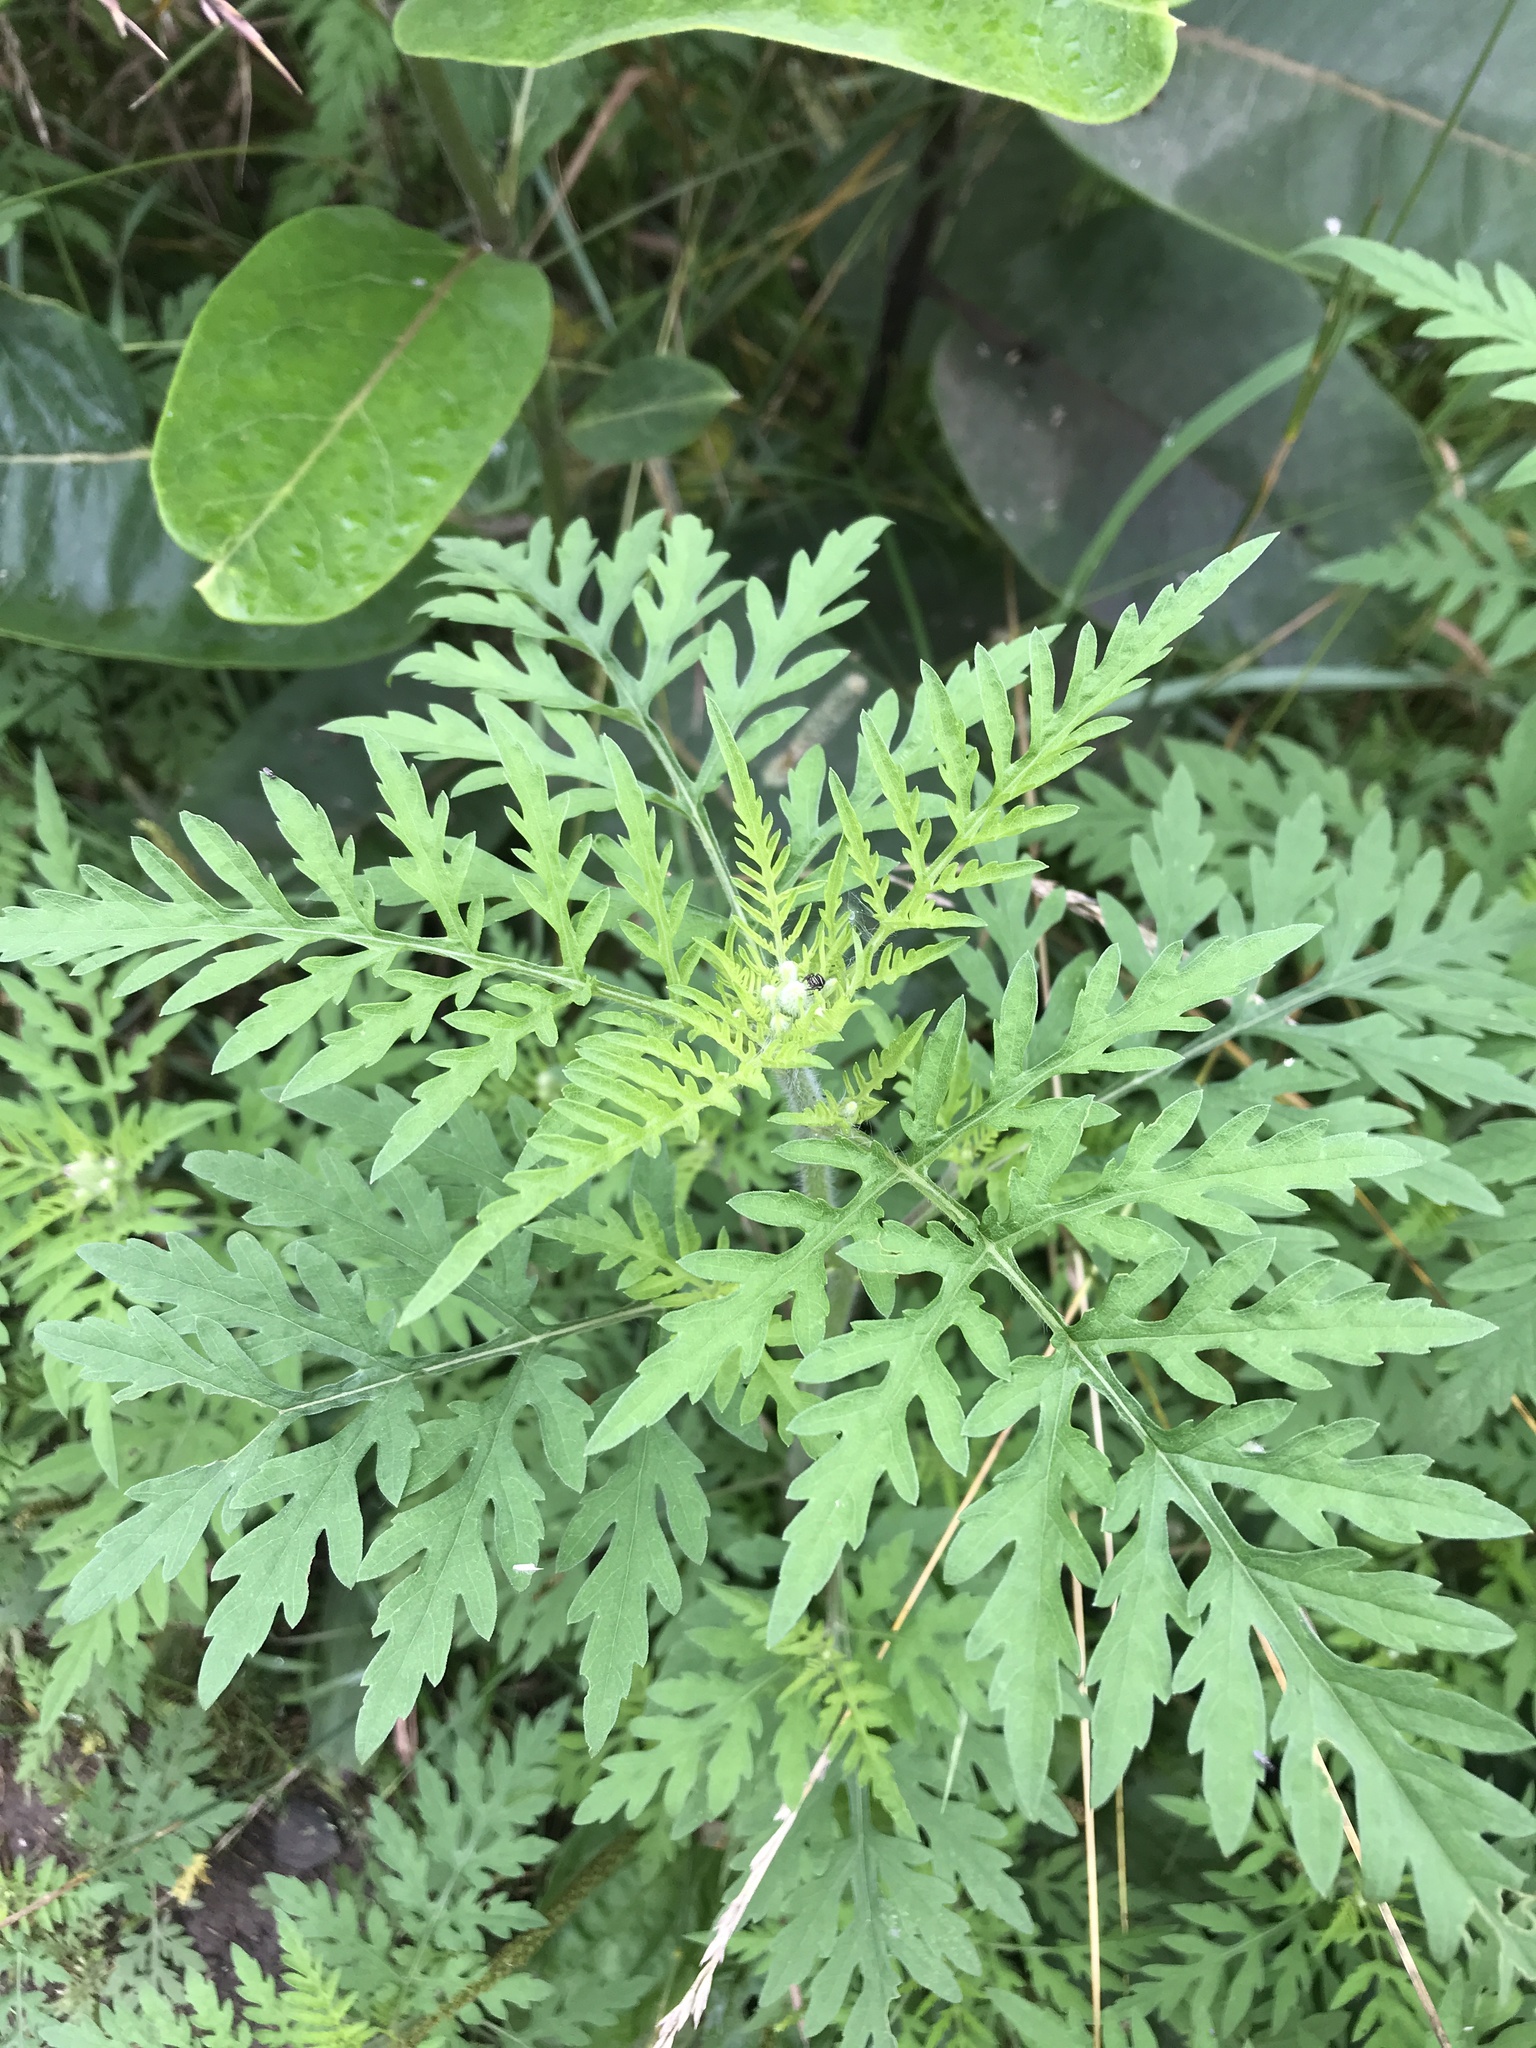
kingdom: Plantae
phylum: Tracheophyta
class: Magnoliopsida
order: Asterales
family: Asteraceae
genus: Ambrosia
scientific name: Ambrosia artemisiifolia
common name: Annual ragweed
